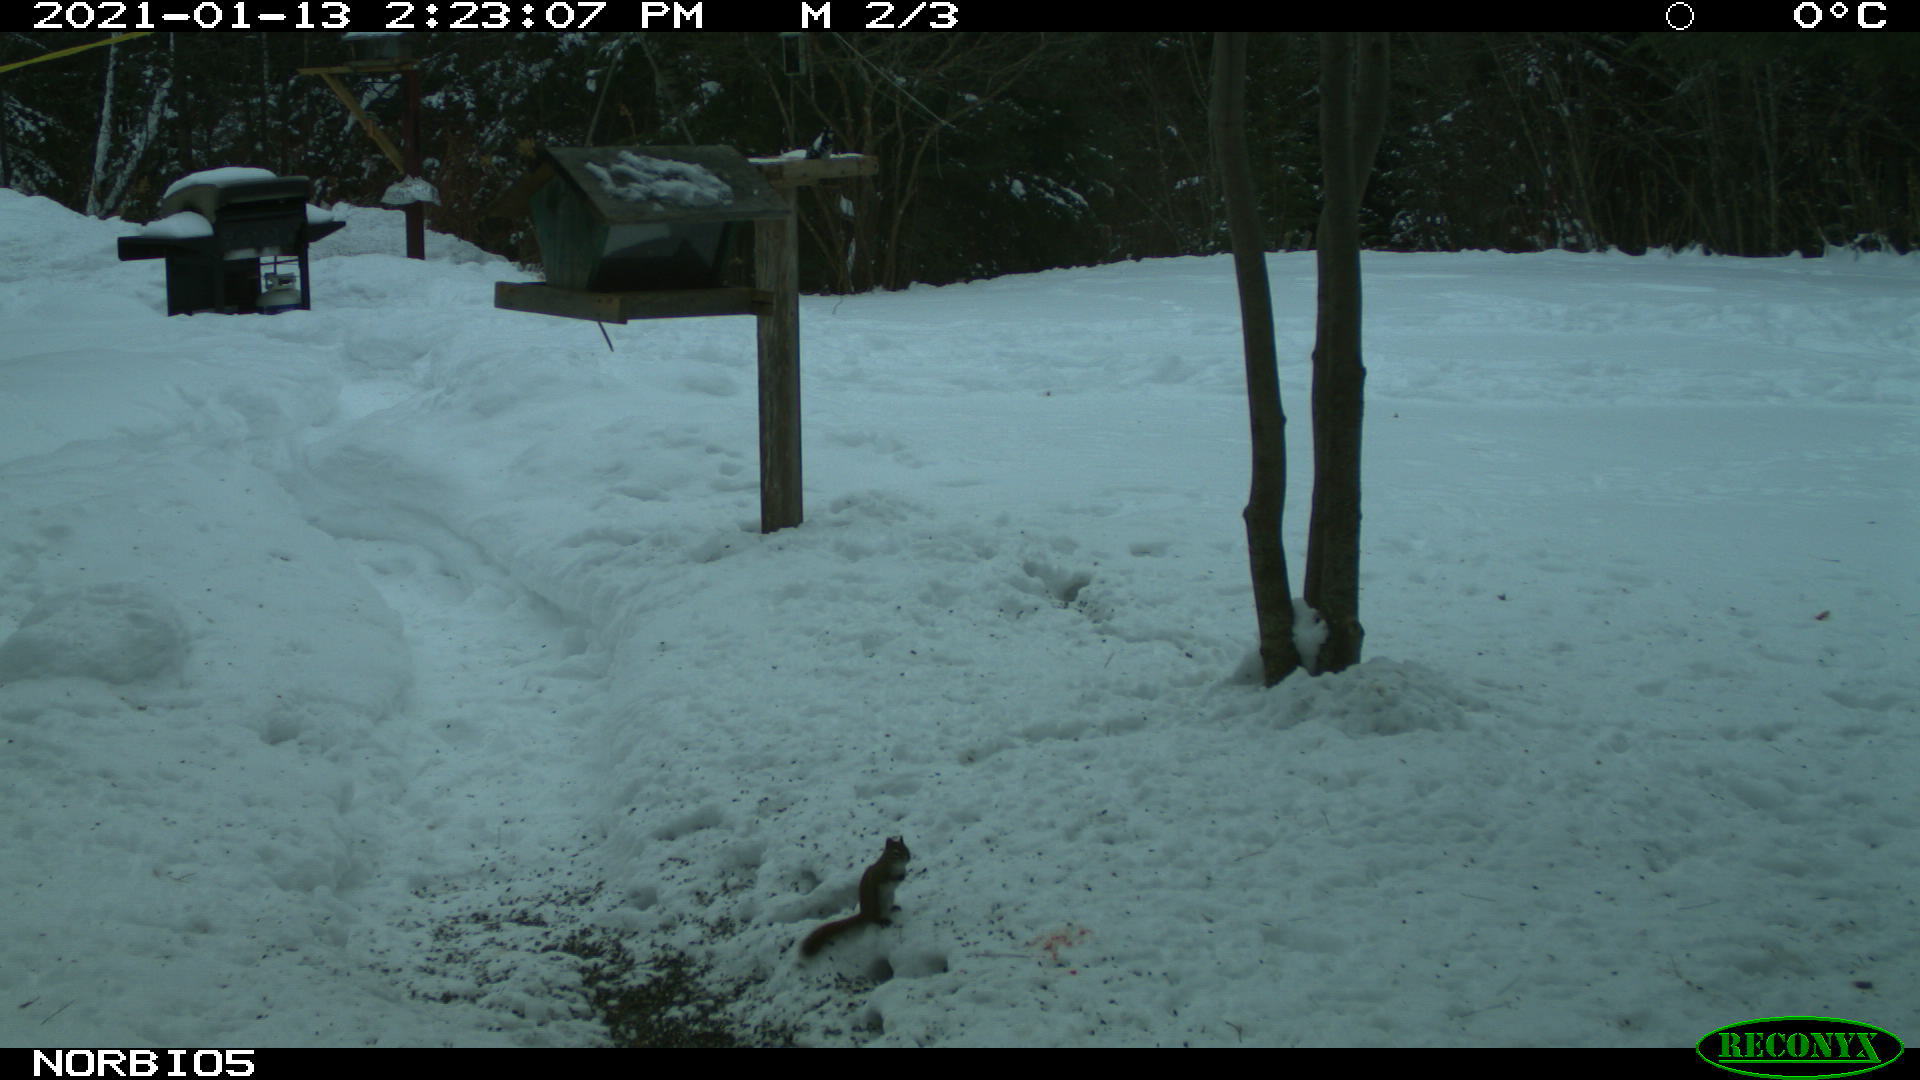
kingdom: Animalia
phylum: Chordata
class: Mammalia
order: Rodentia
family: Sciuridae
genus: Tamiasciurus
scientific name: Tamiasciurus hudsonicus
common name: Red squirrel
